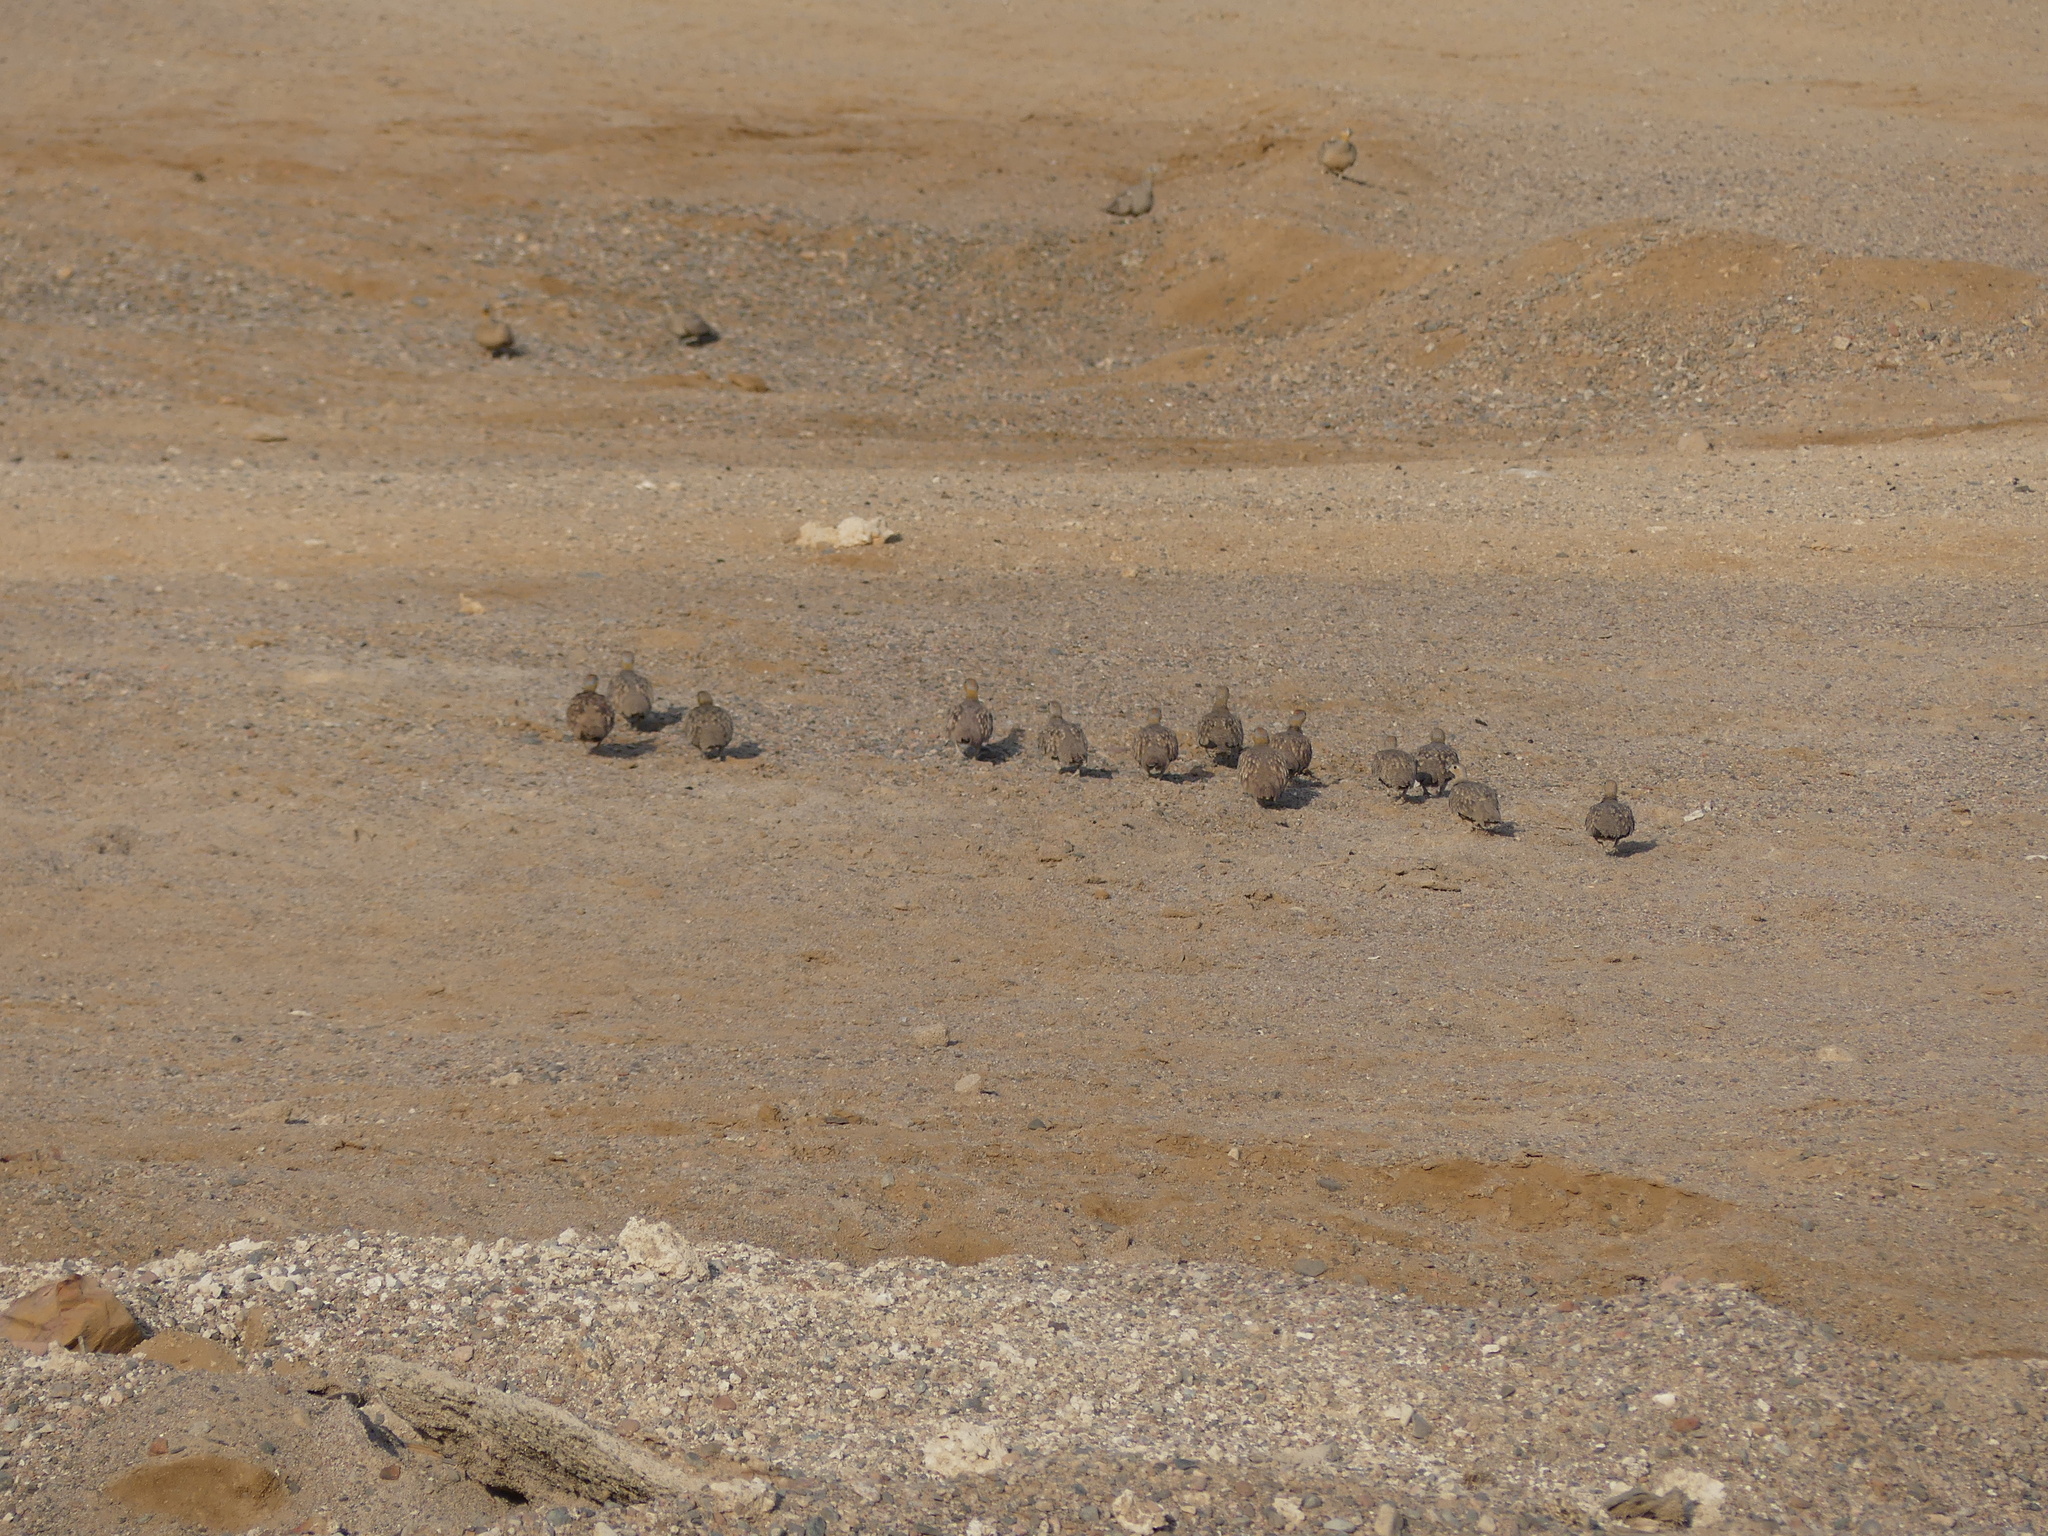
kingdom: Animalia
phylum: Chordata
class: Aves
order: Pteroclidiformes
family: Pteroclididae
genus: Pterocles
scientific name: Pterocles coronatus
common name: Crowned sandgrouse
